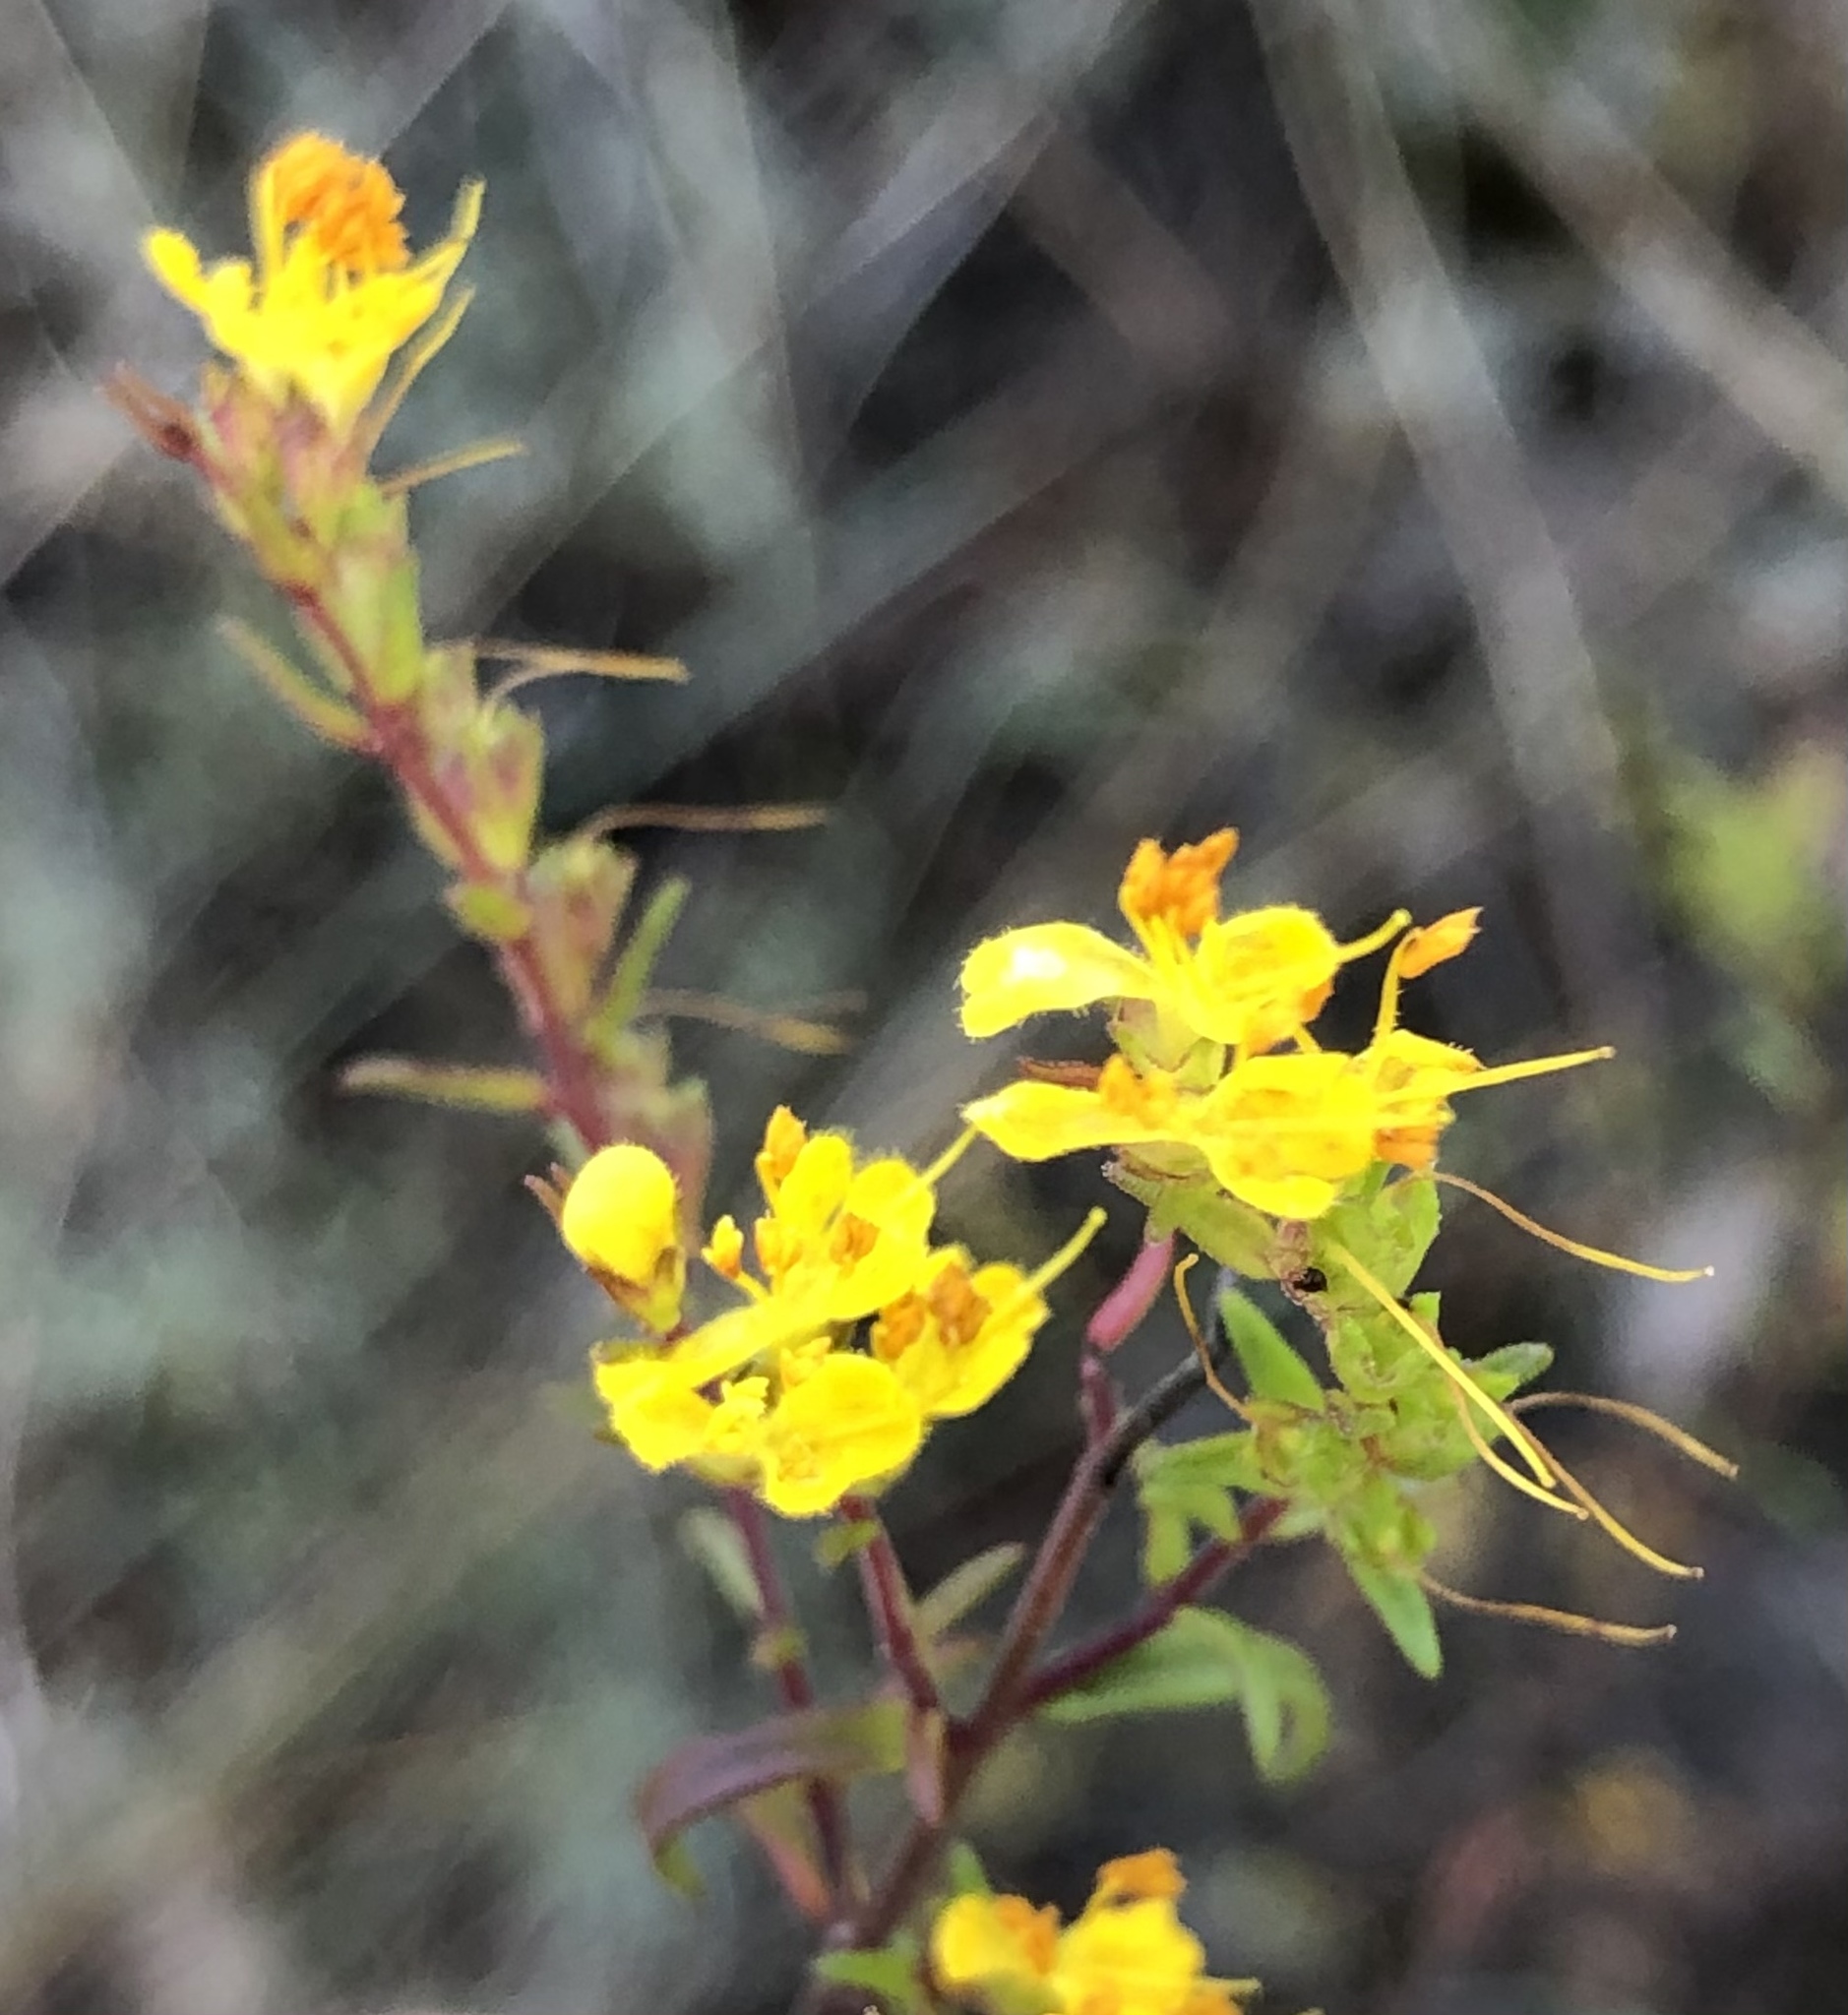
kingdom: Plantae
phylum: Tracheophyta
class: Magnoliopsida
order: Lamiales
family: Orobanchaceae
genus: Odontites
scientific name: Odontites luteus
